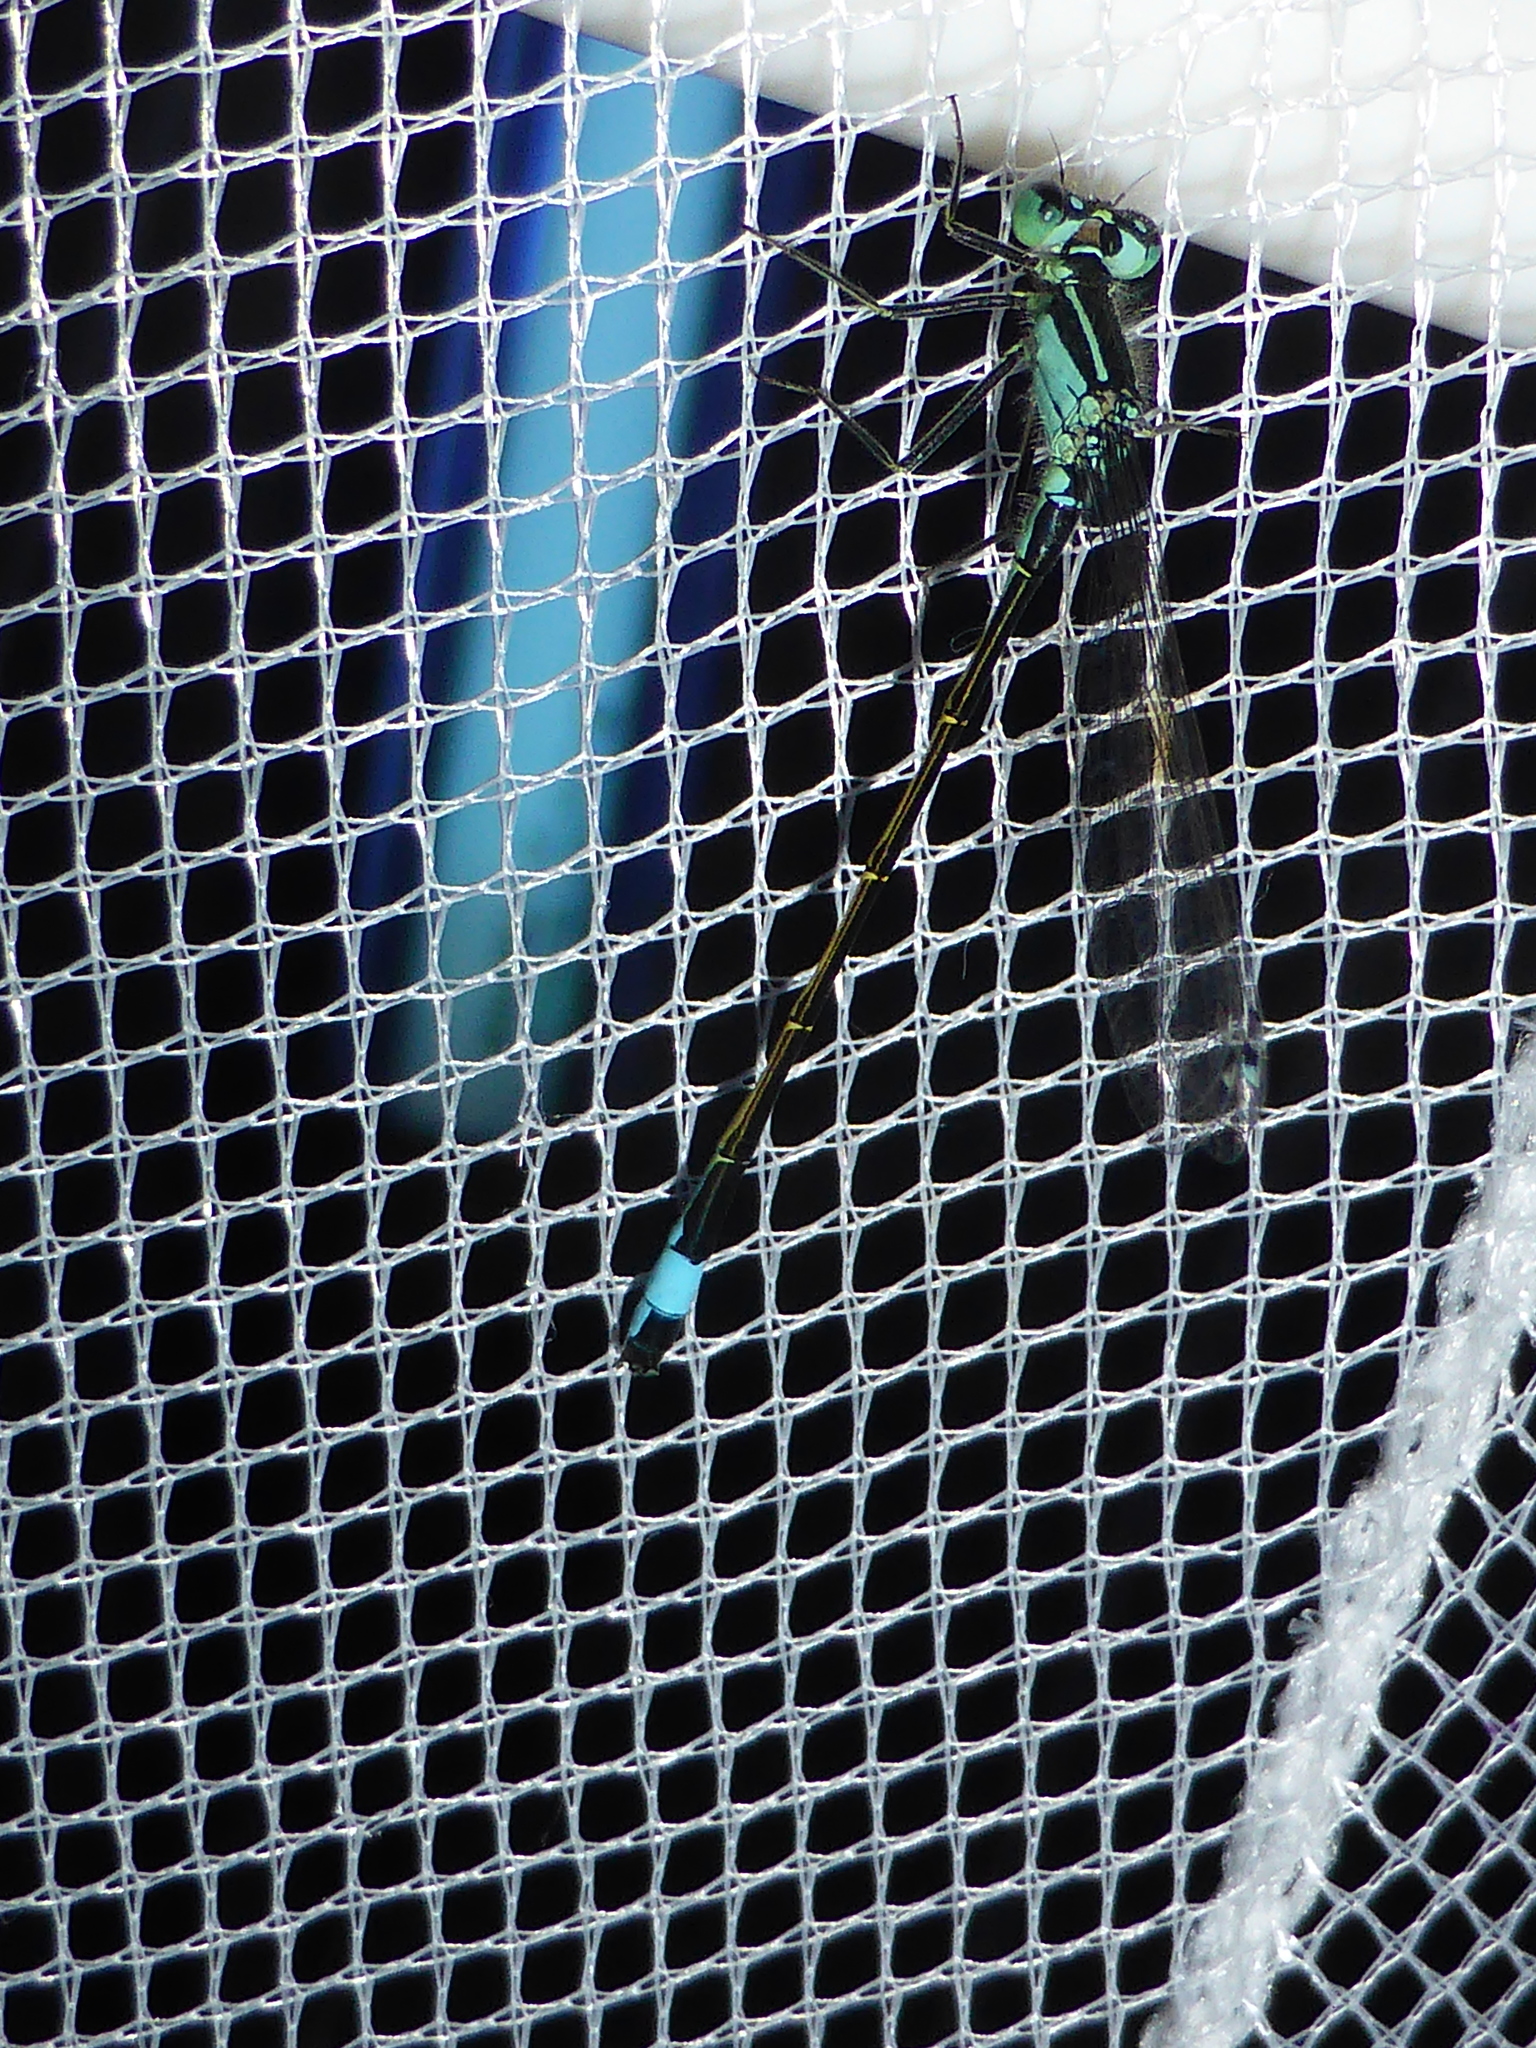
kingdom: Animalia
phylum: Arthropoda
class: Insecta
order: Odonata
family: Coenagrionidae
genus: Ischnura
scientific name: Ischnura elegans
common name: Blue-tailed damselfly
